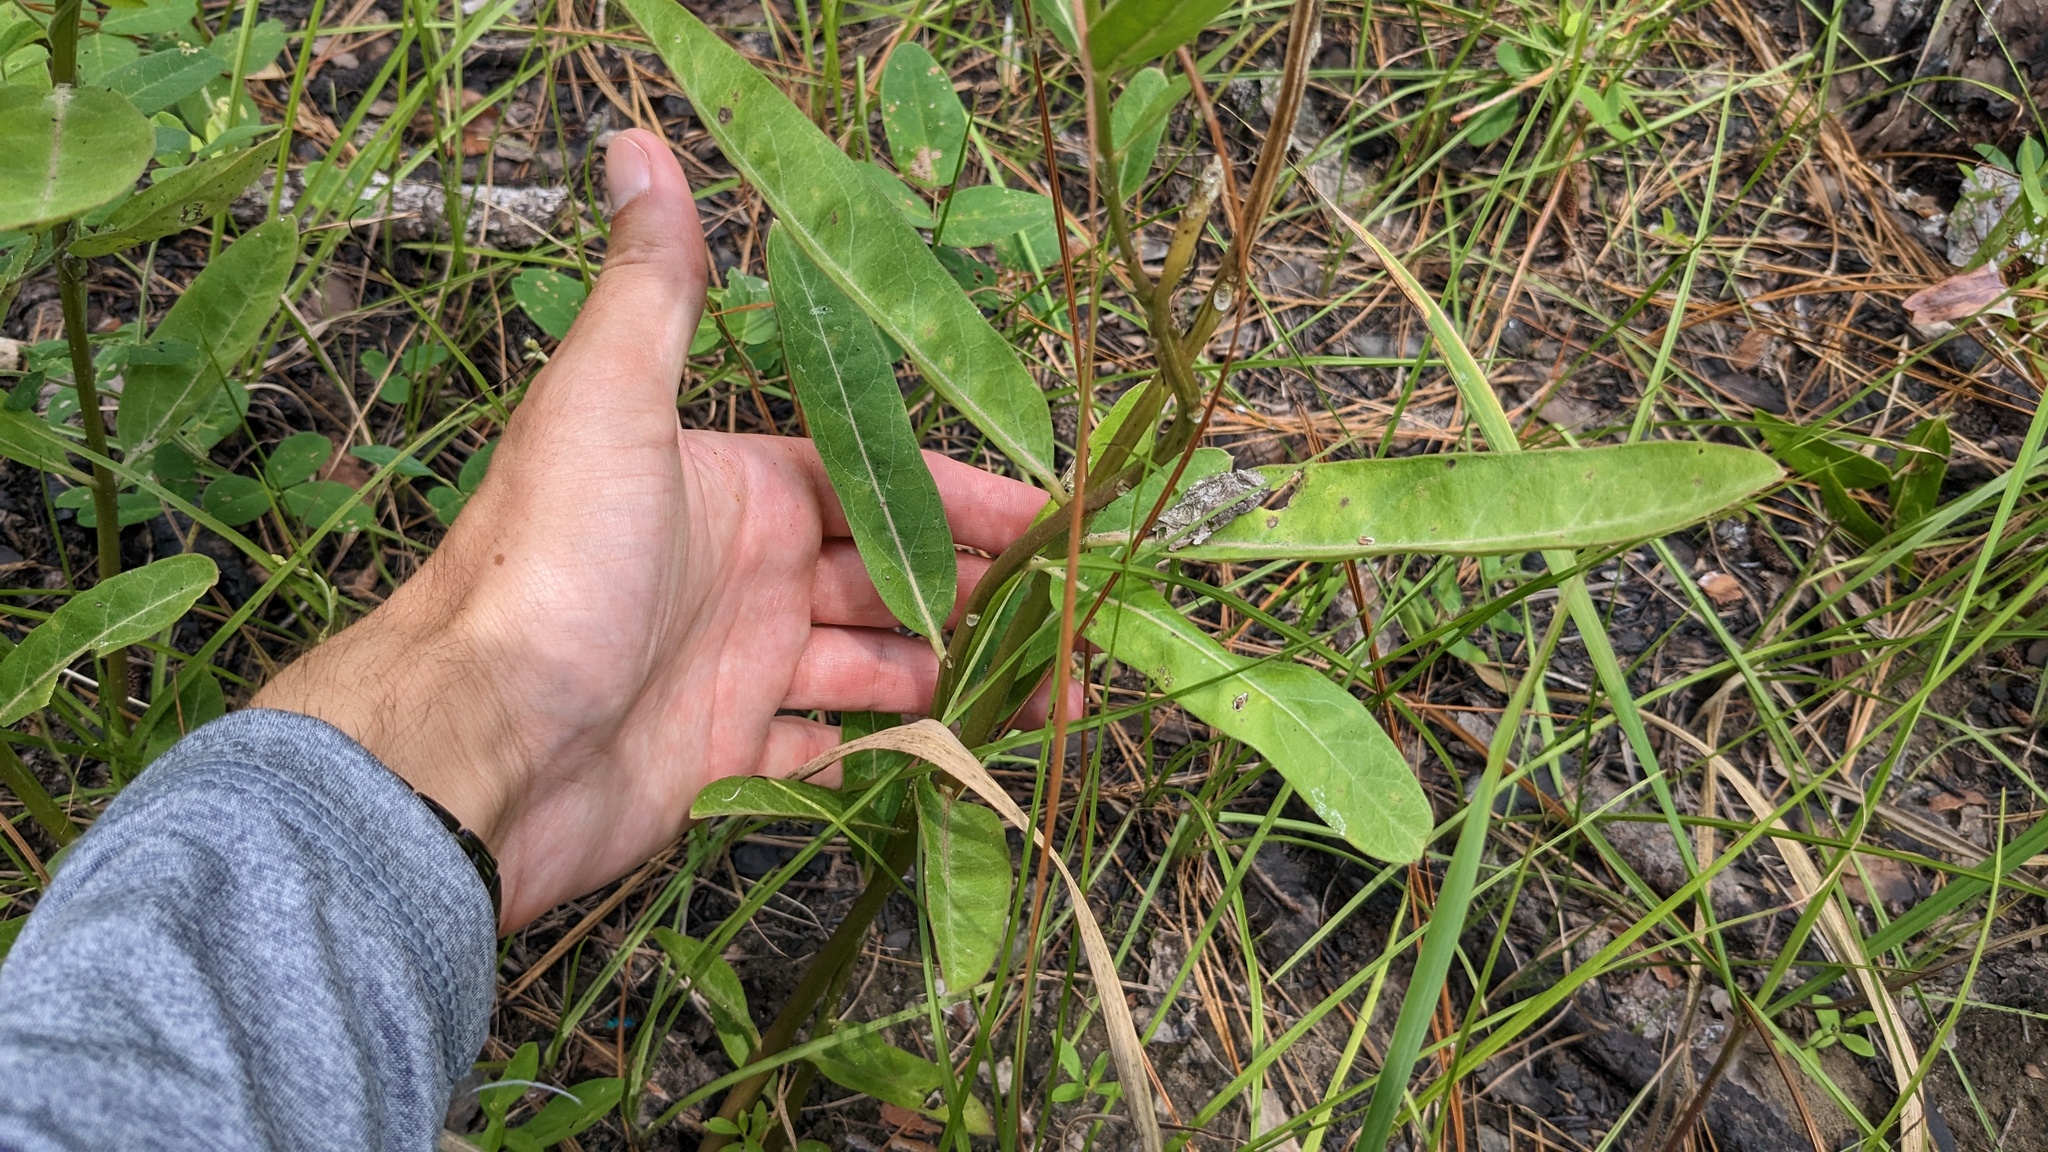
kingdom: Plantae
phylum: Tracheophyta
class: Magnoliopsida
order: Gentianales
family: Apocynaceae
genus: Asclepias
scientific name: Asclepias viridis
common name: Antelope-horns
